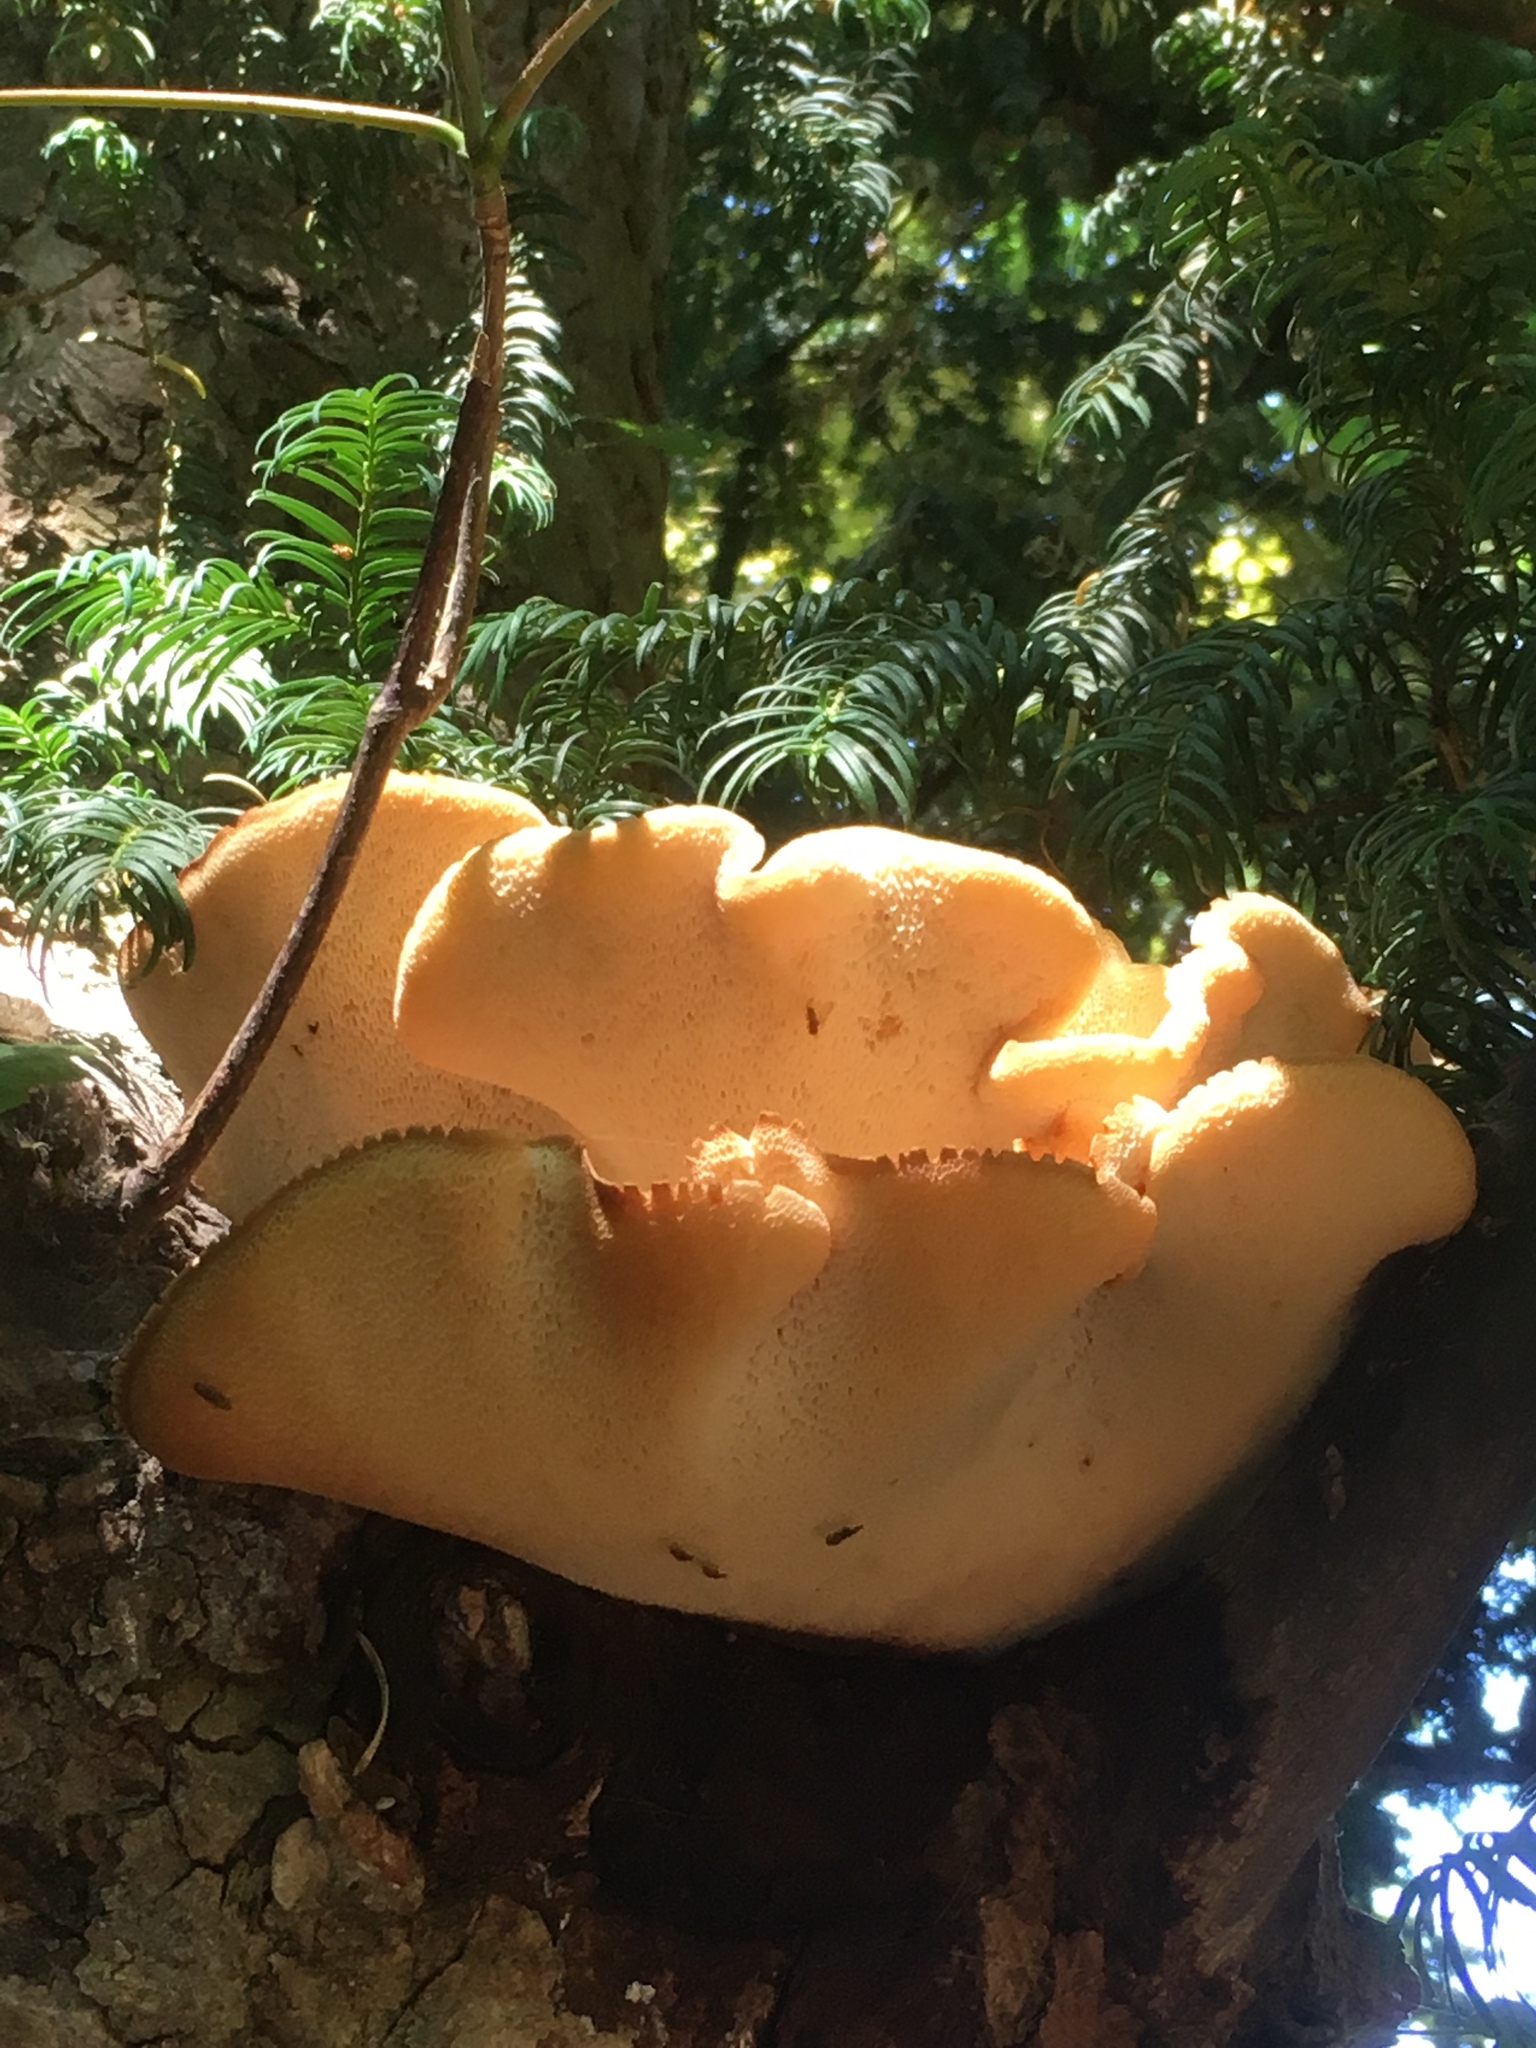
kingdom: Fungi
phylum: Basidiomycota
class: Agaricomycetes
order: Polyporales
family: Polyporaceae
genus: Cerioporus
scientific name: Cerioporus squamosus
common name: Dryad's saddle
